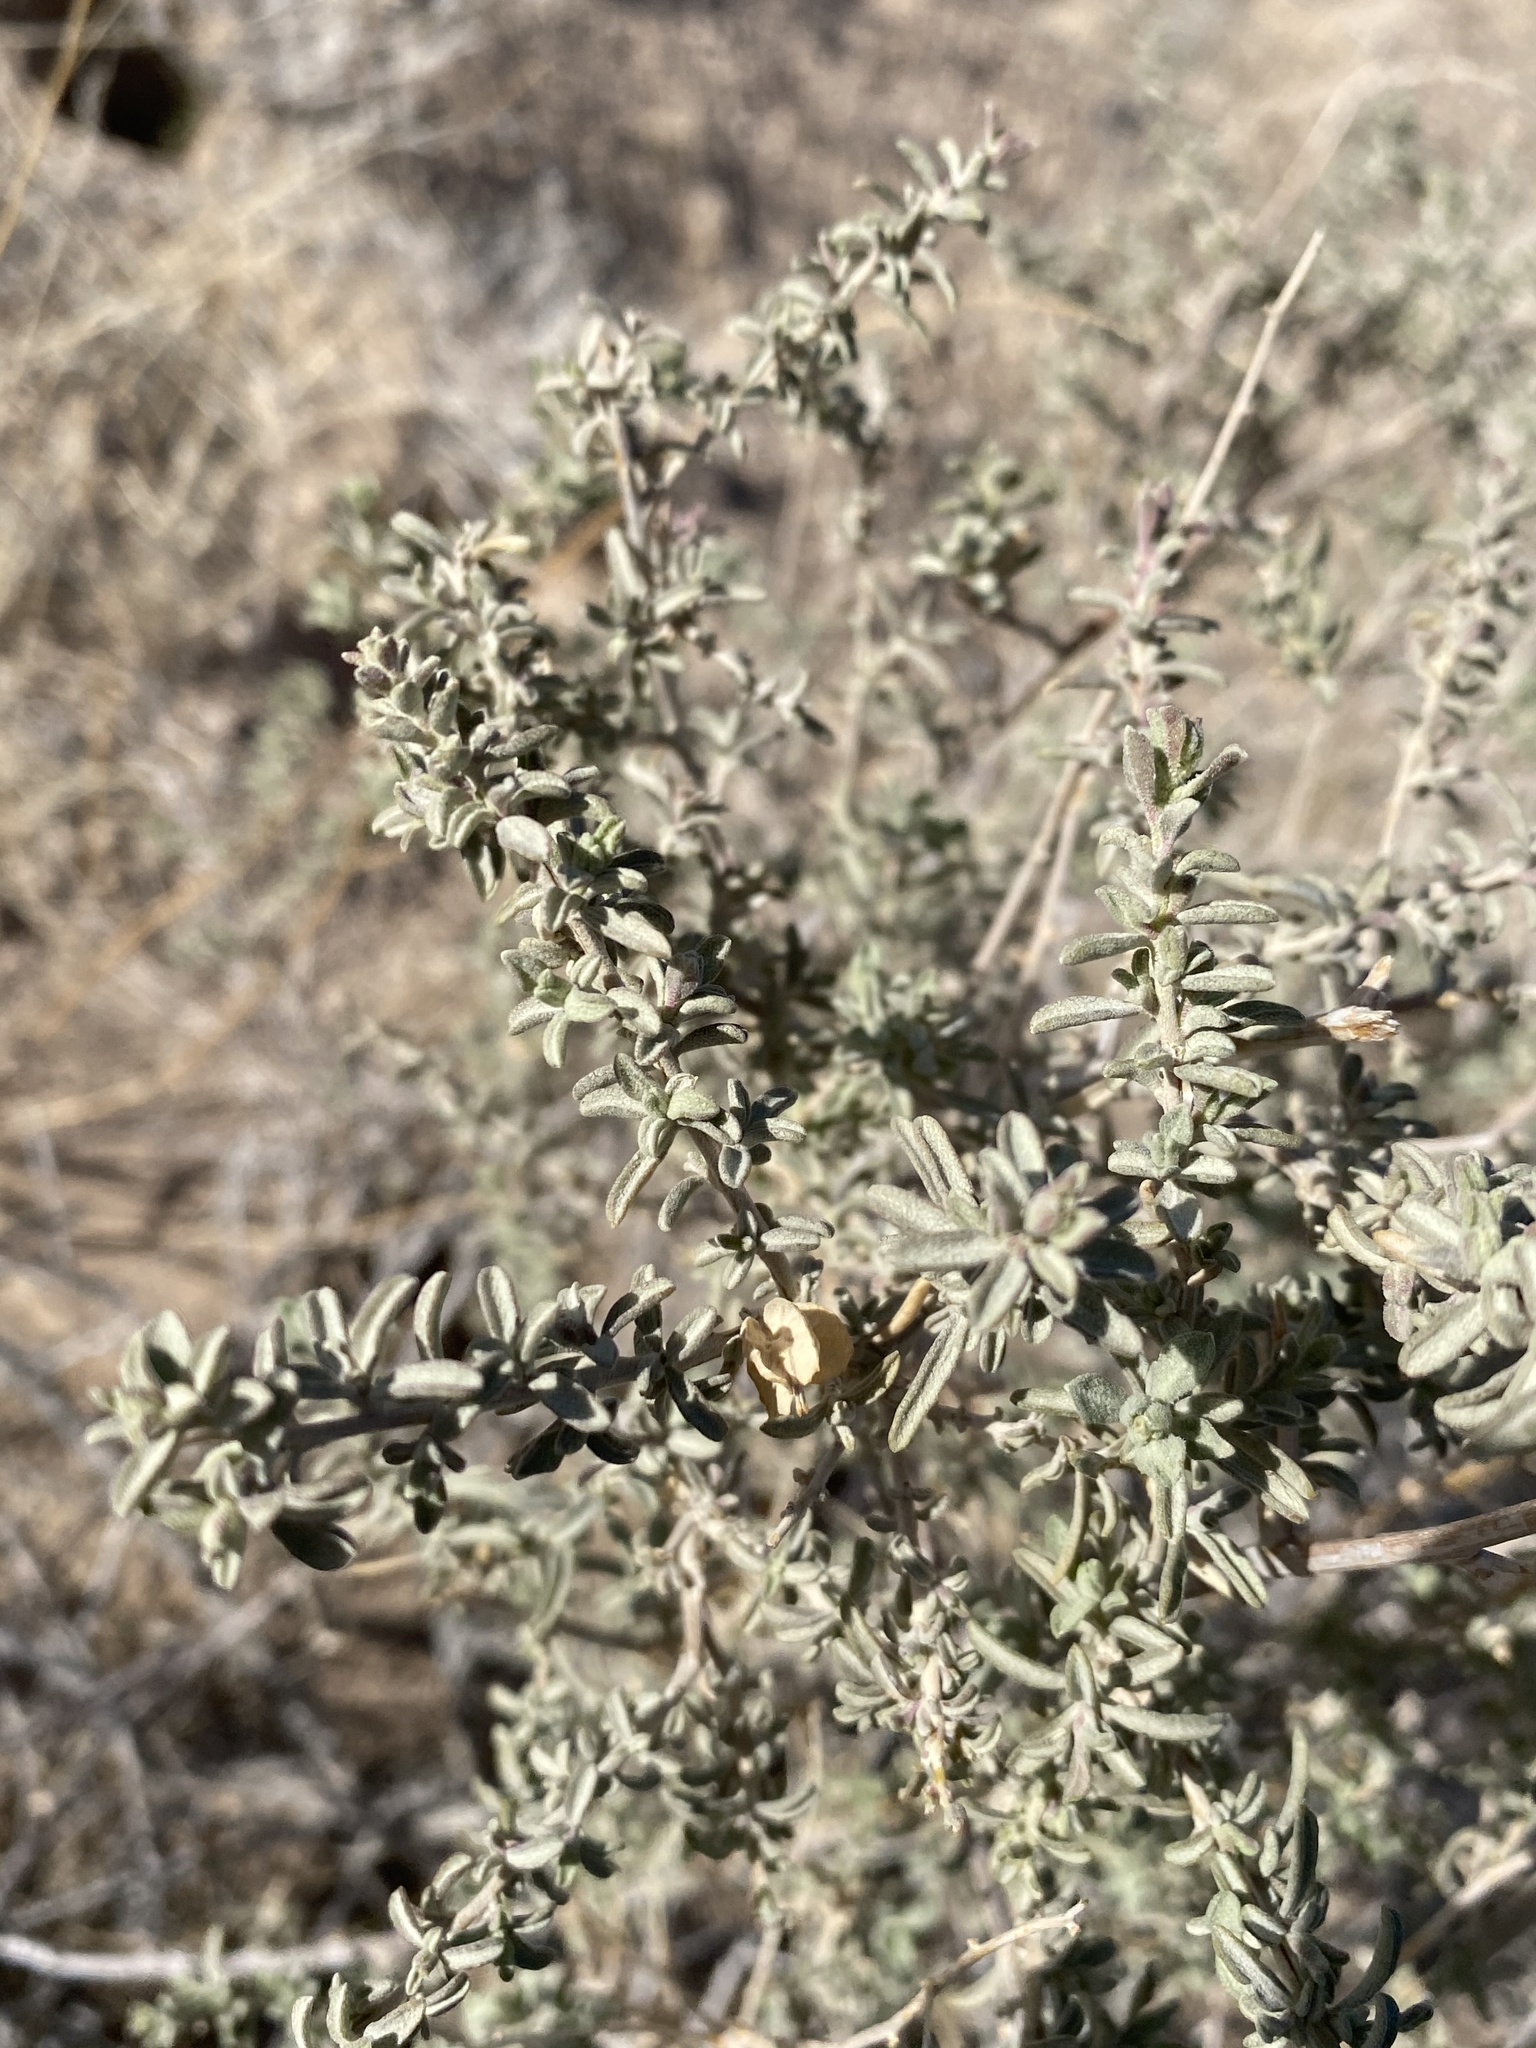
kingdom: Plantae
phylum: Tracheophyta
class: Magnoliopsida
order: Caryophyllales
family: Amaranthaceae
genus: Atriplex
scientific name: Atriplex canescens
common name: Four-wing saltbush
